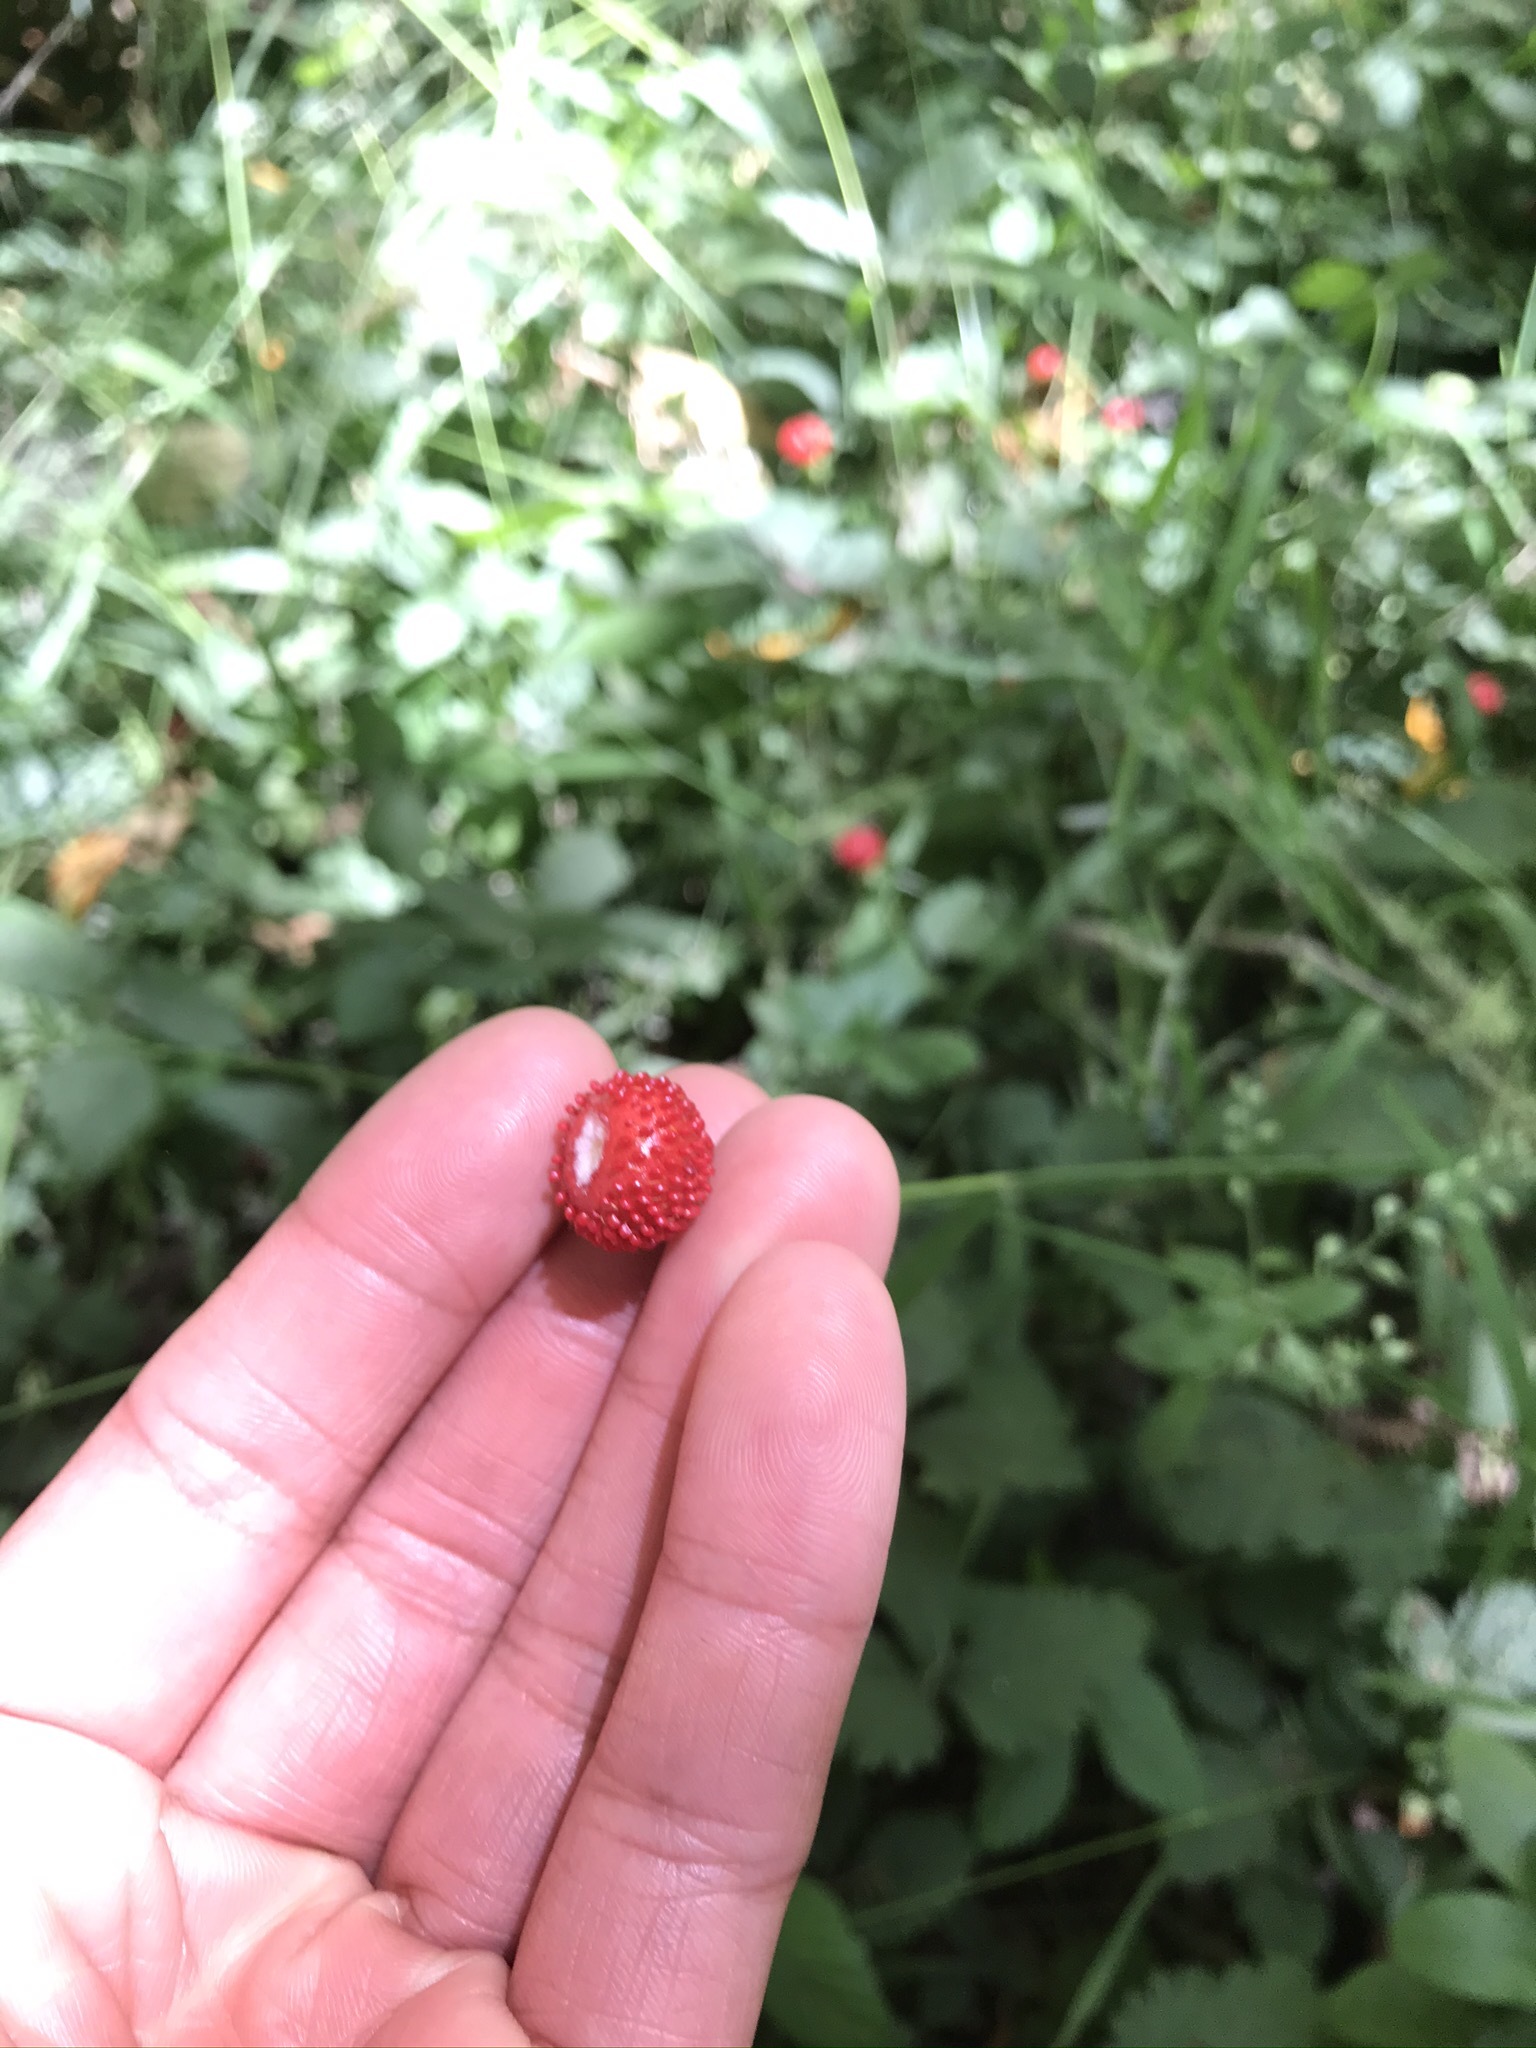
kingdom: Plantae
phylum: Tracheophyta
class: Magnoliopsida
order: Rosales
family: Rosaceae
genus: Potentilla
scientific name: Potentilla indica
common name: Yellow-flowered strawberry
